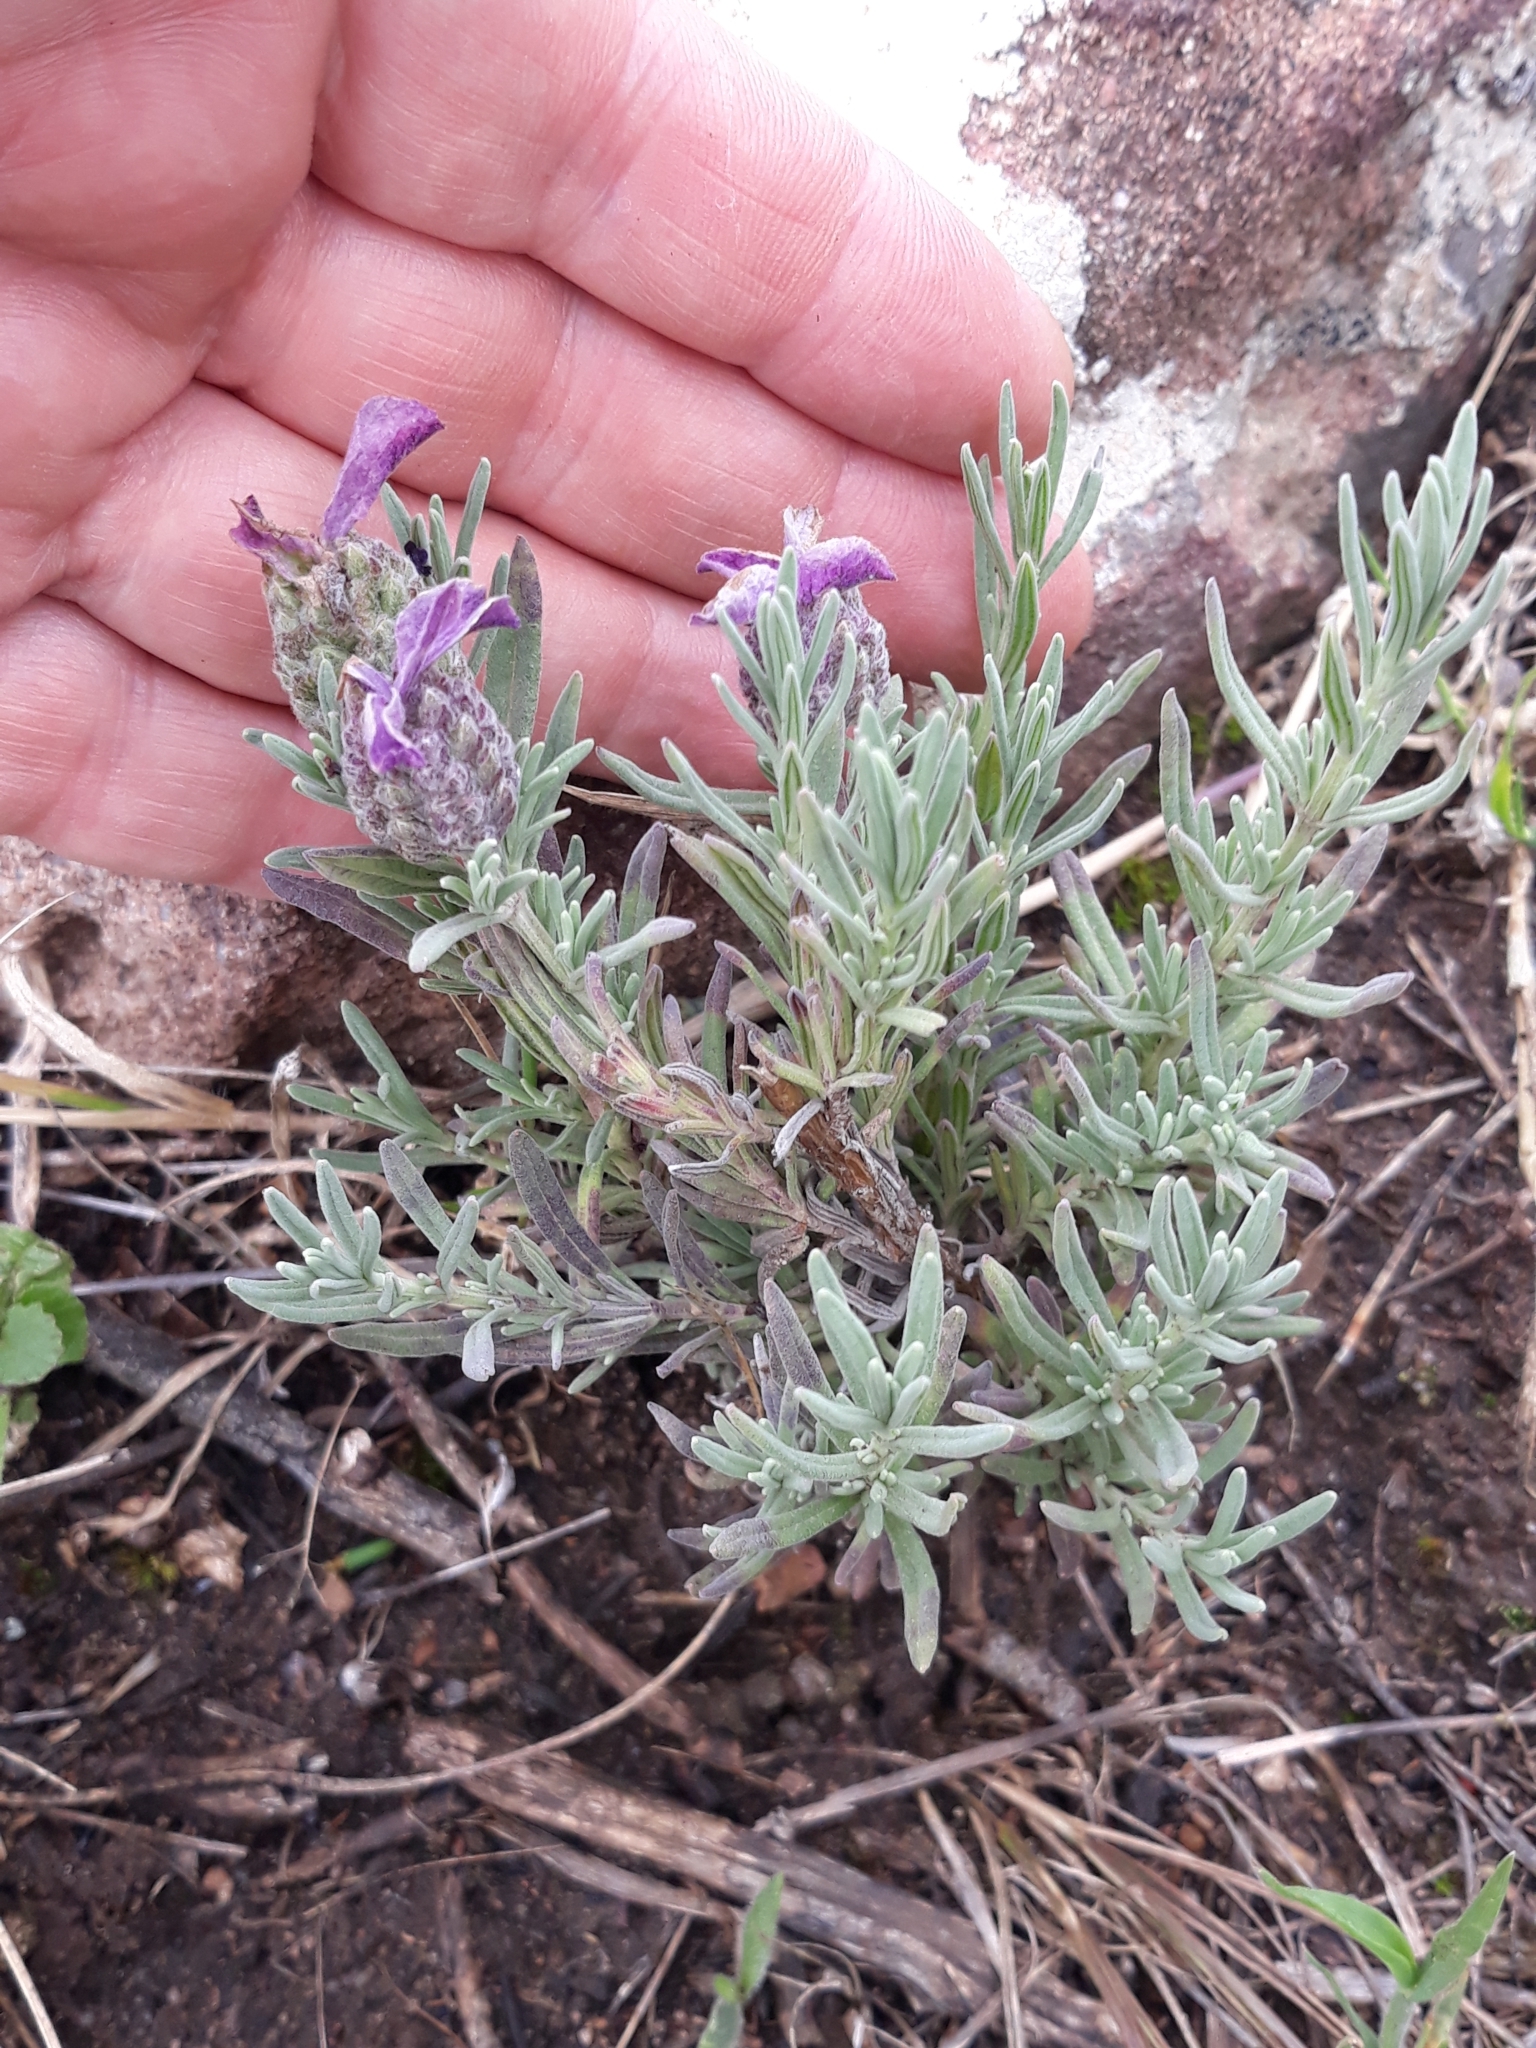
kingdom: Plantae
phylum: Tracheophyta
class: Magnoliopsida
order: Lamiales
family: Lamiaceae
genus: Lavandula
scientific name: Lavandula stoechas
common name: French lavender
